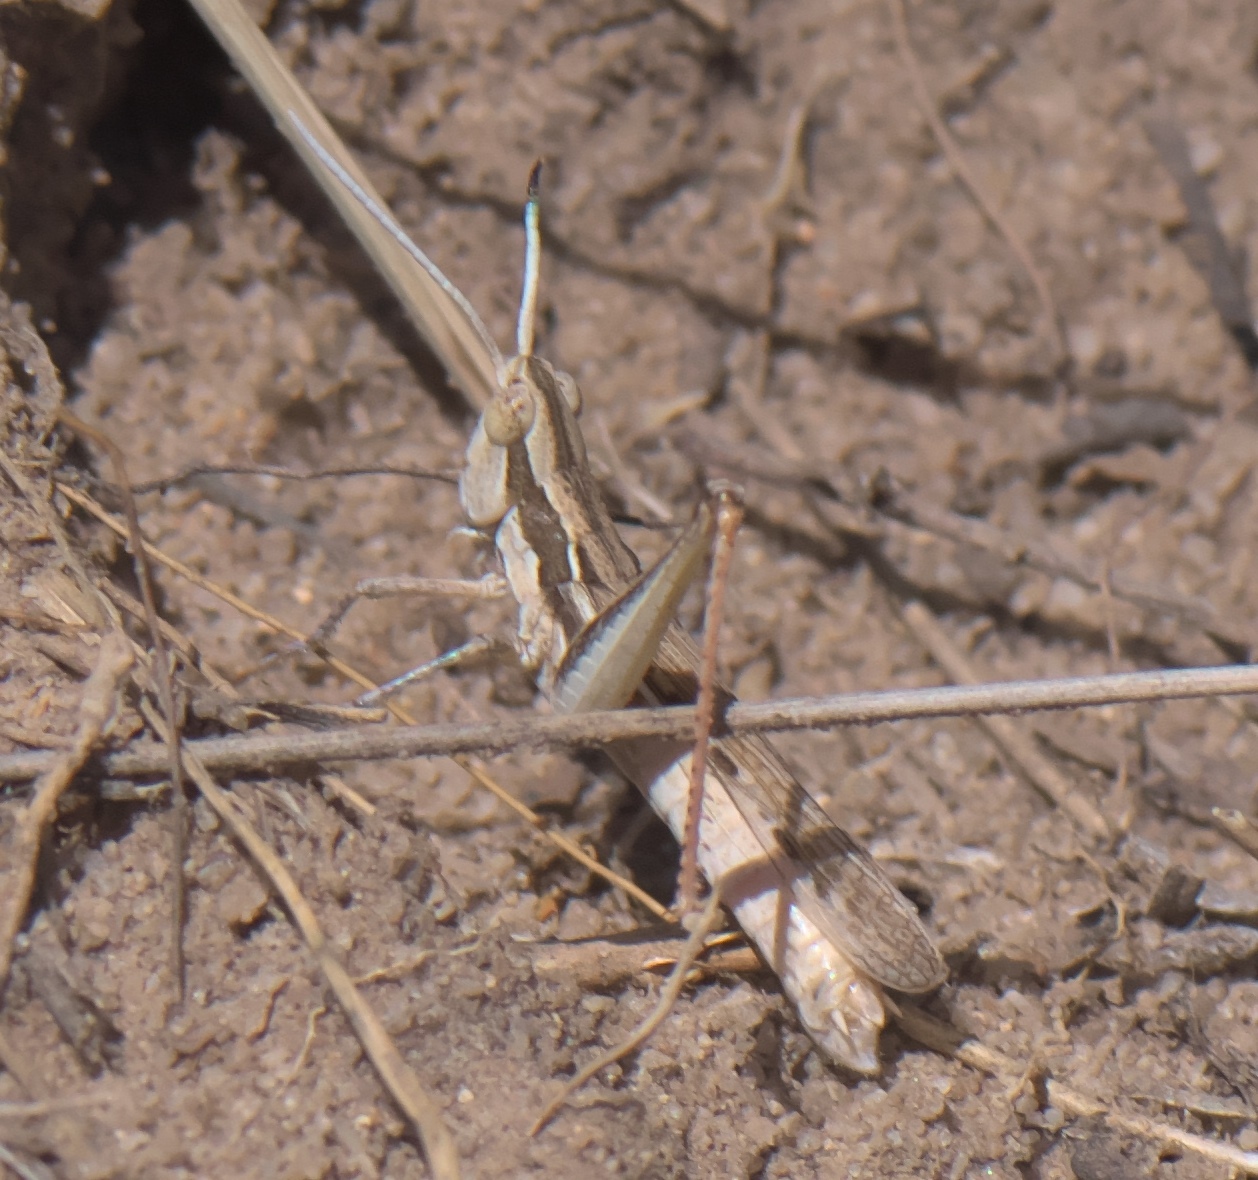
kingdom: Animalia
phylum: Arthropoda
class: Insecta
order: Orthoptera
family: Acrididae
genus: Cordillacris
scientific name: Cordillacris occipitalis
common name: Spotted-winged grasshopper
